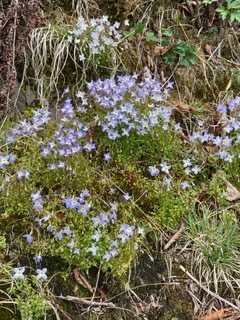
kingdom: Plantae
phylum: Tracheophyta
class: Magnoliopsida
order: Gentianales
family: Rubiaceae
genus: Houstonia
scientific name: Houstonia serpyllifolia
